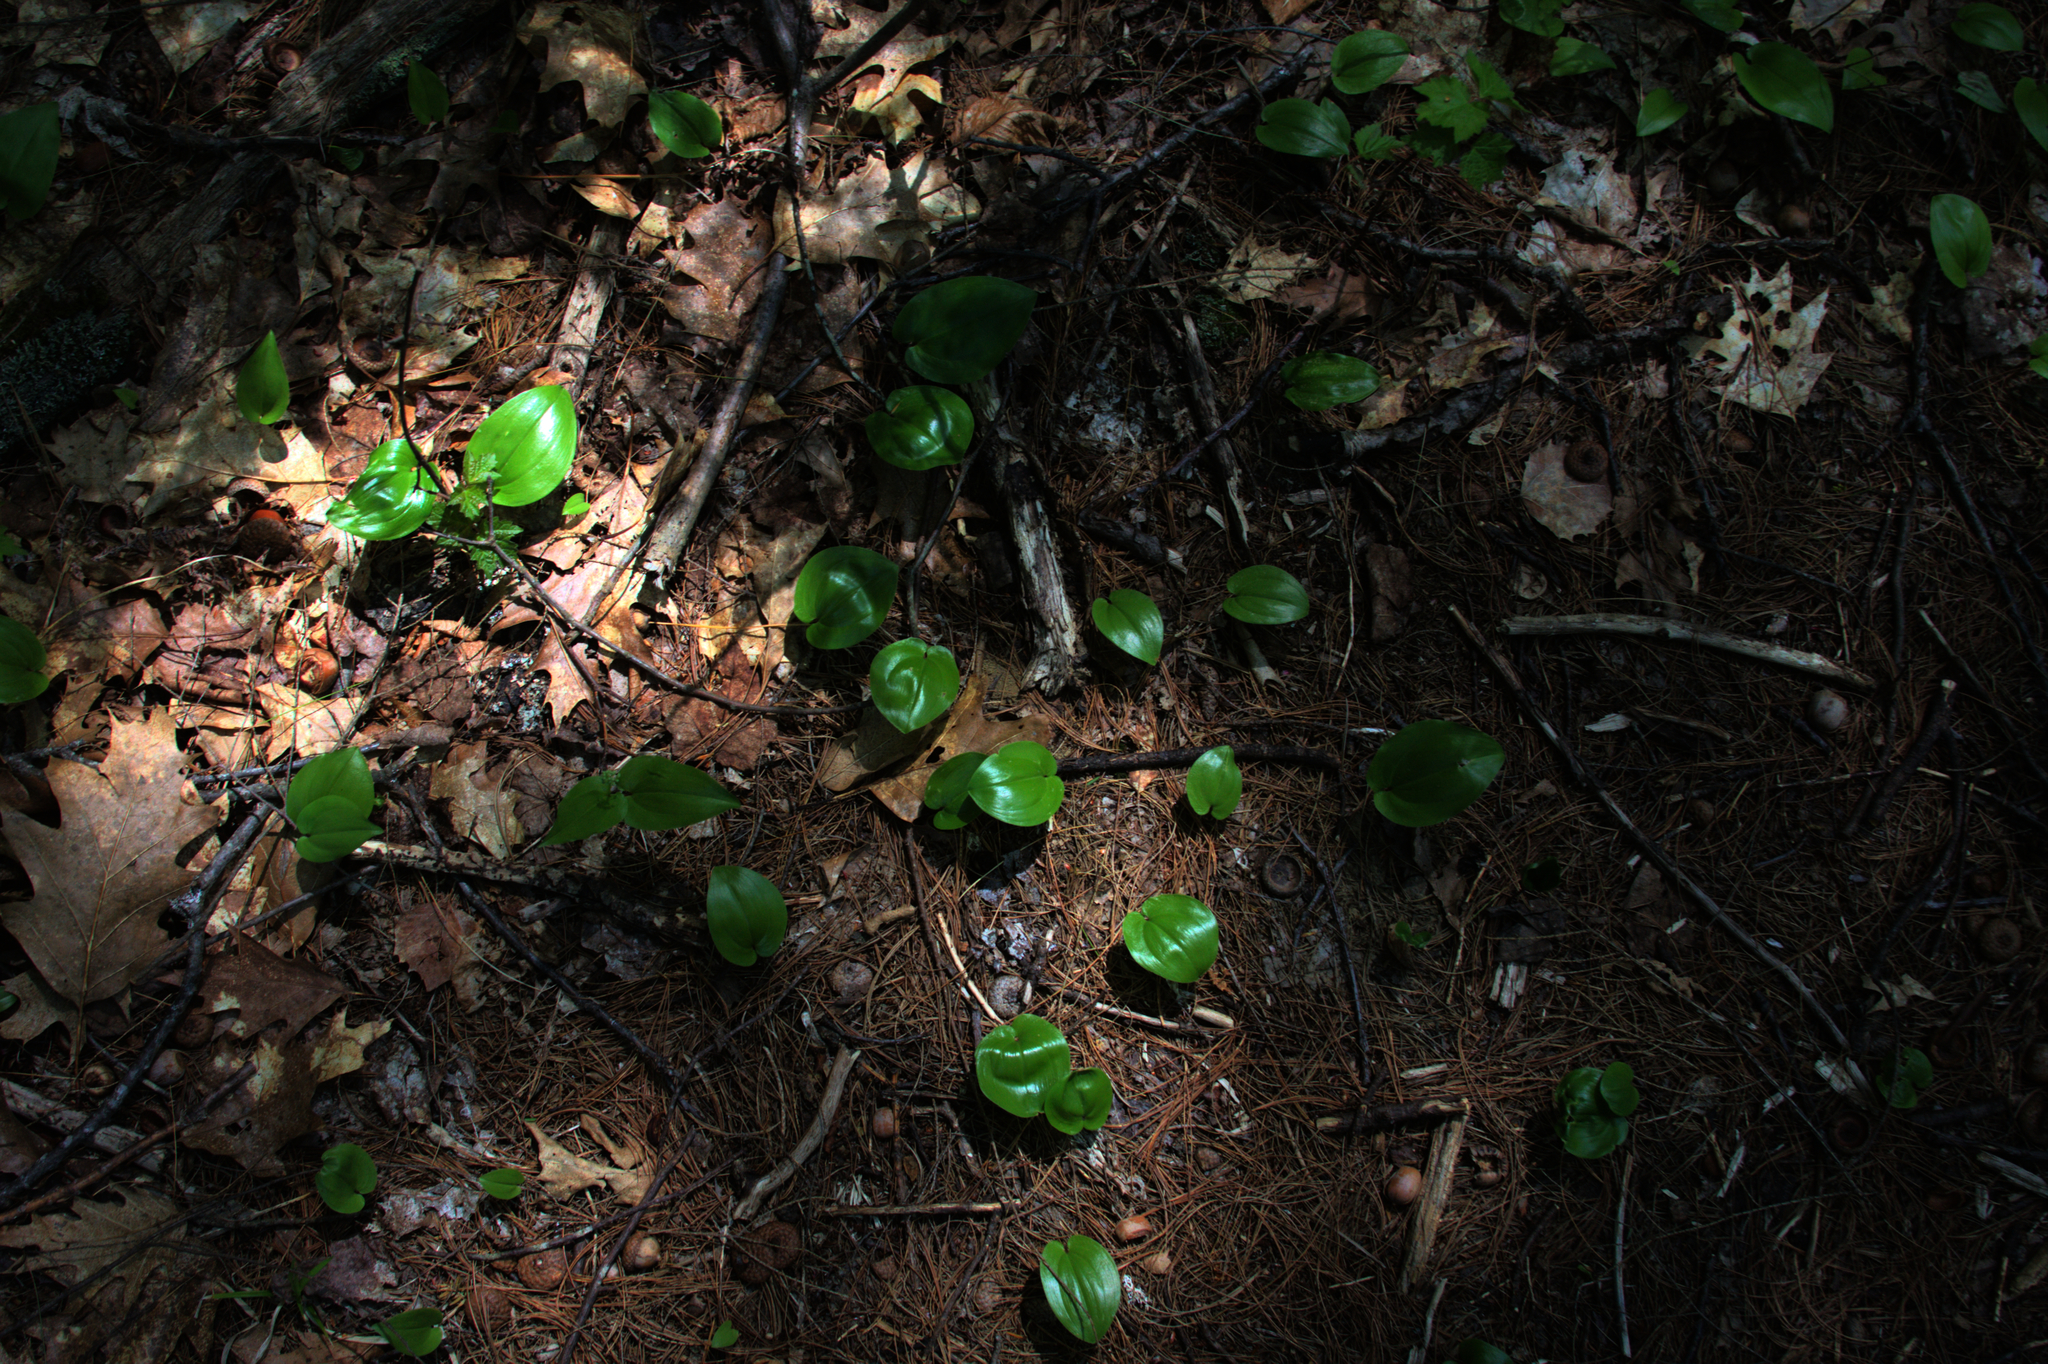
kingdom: Plantae
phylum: Tracheophyta
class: Liliopsida
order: Asparagales
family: Asparagaceae
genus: Maianthemum
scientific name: Maianthemum canadense
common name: False lily-of-the-valley
